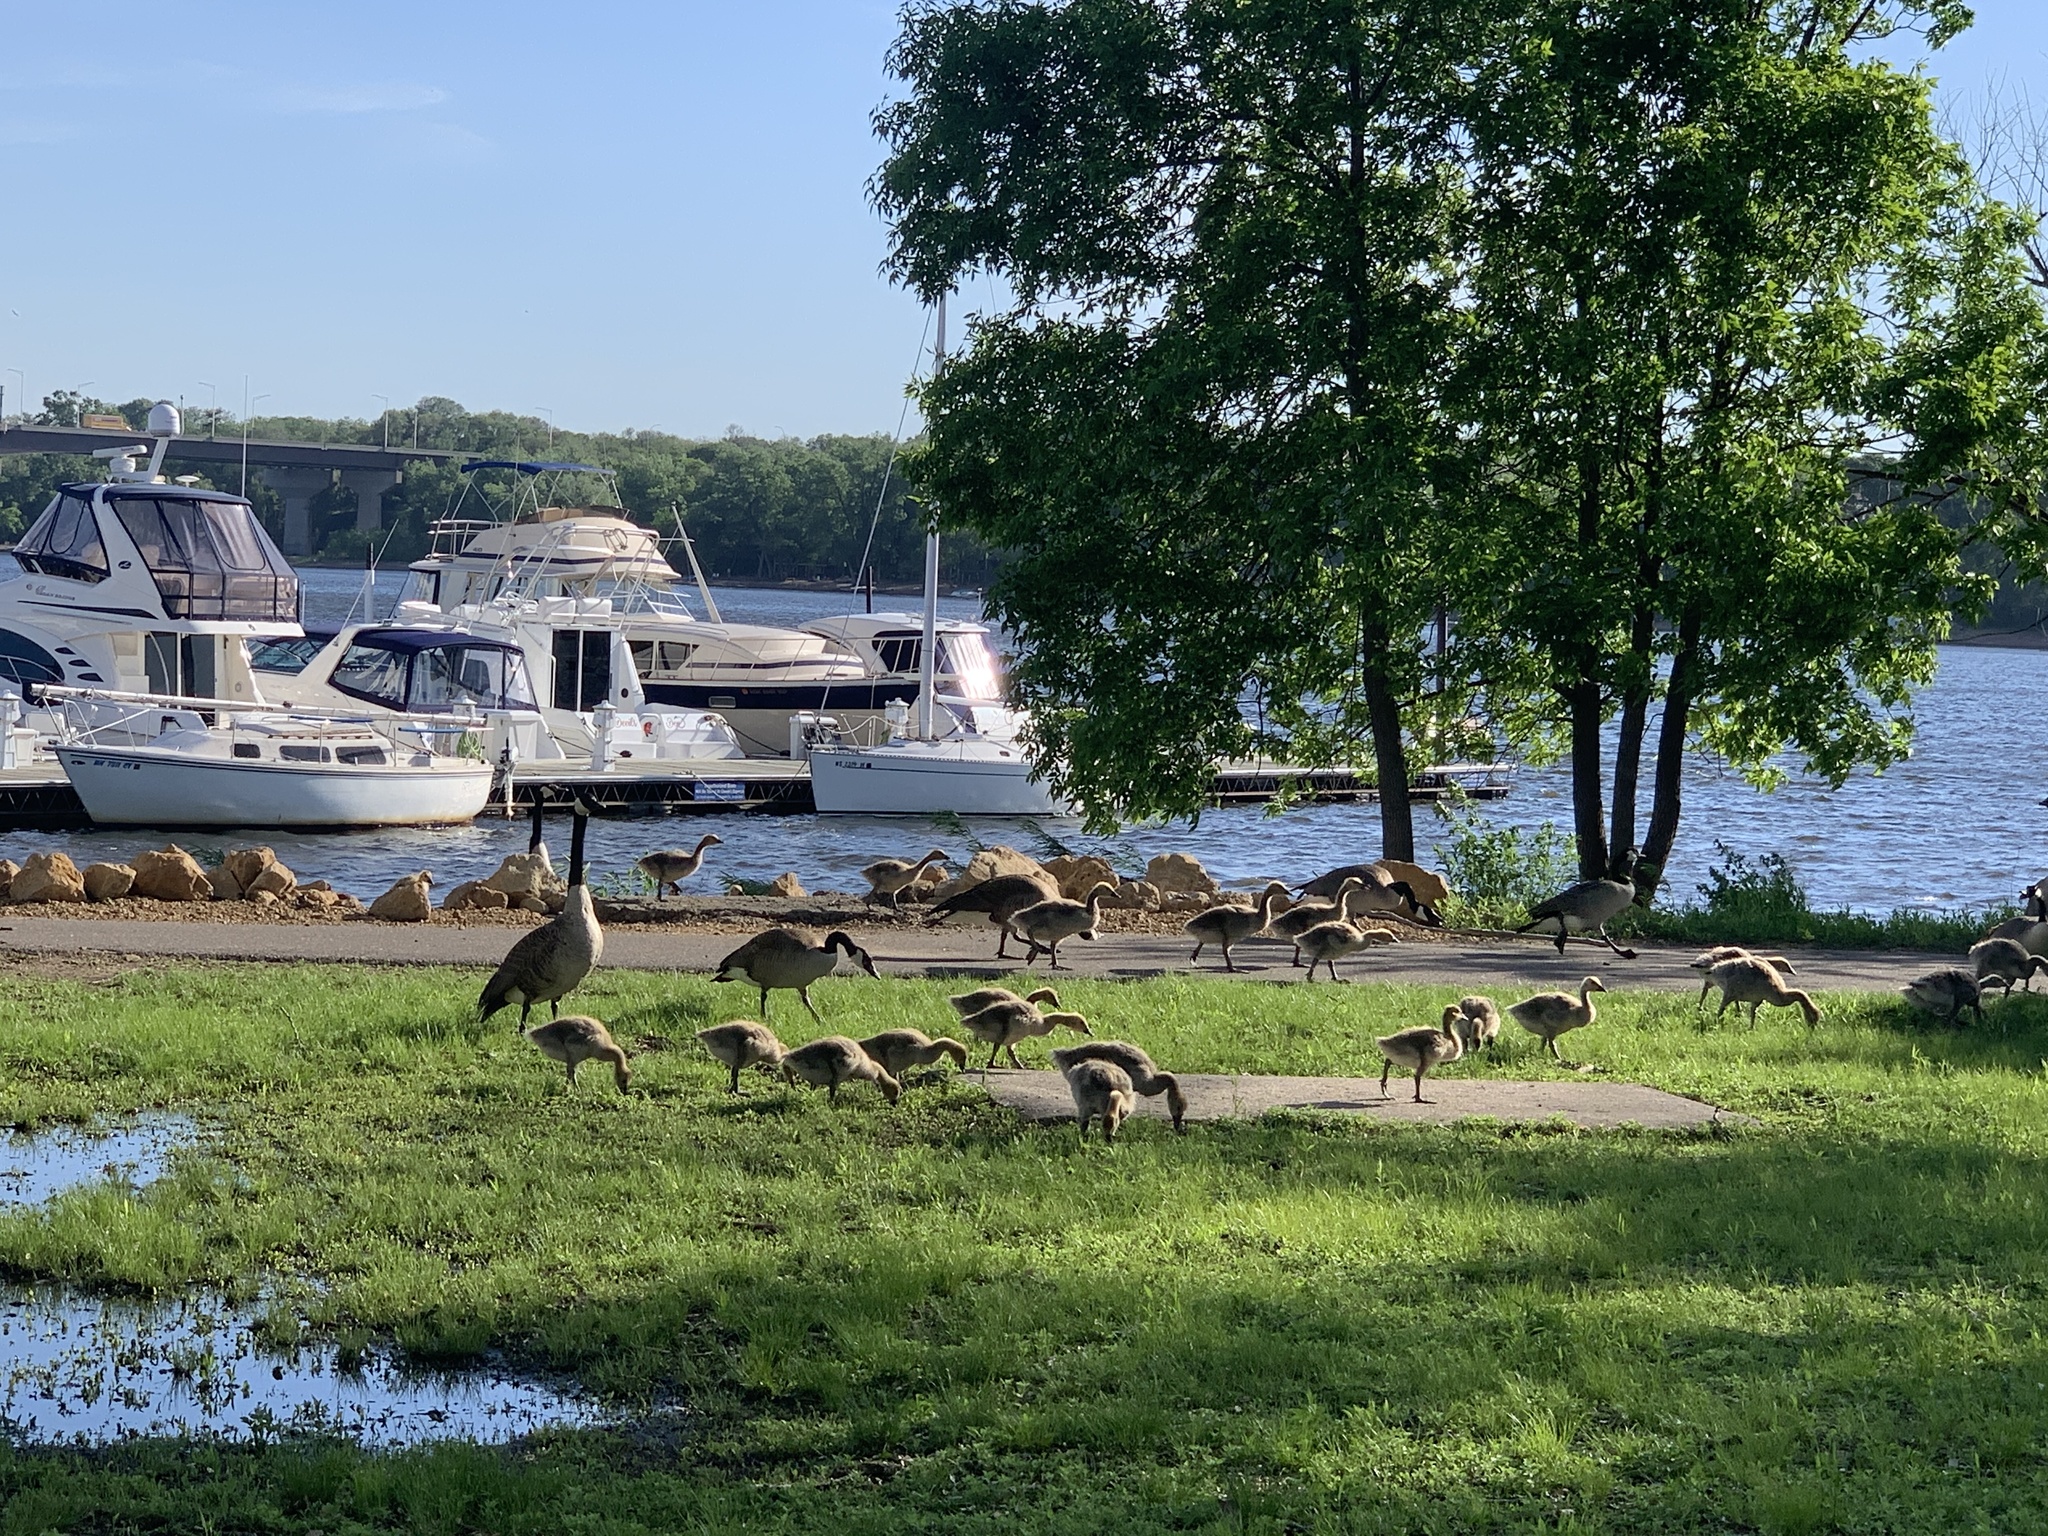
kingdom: Animalia
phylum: Chordata
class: Aves
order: Anseriformes
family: Anatidae
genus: Branta
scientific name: Branta canadensis
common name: Canada goose
